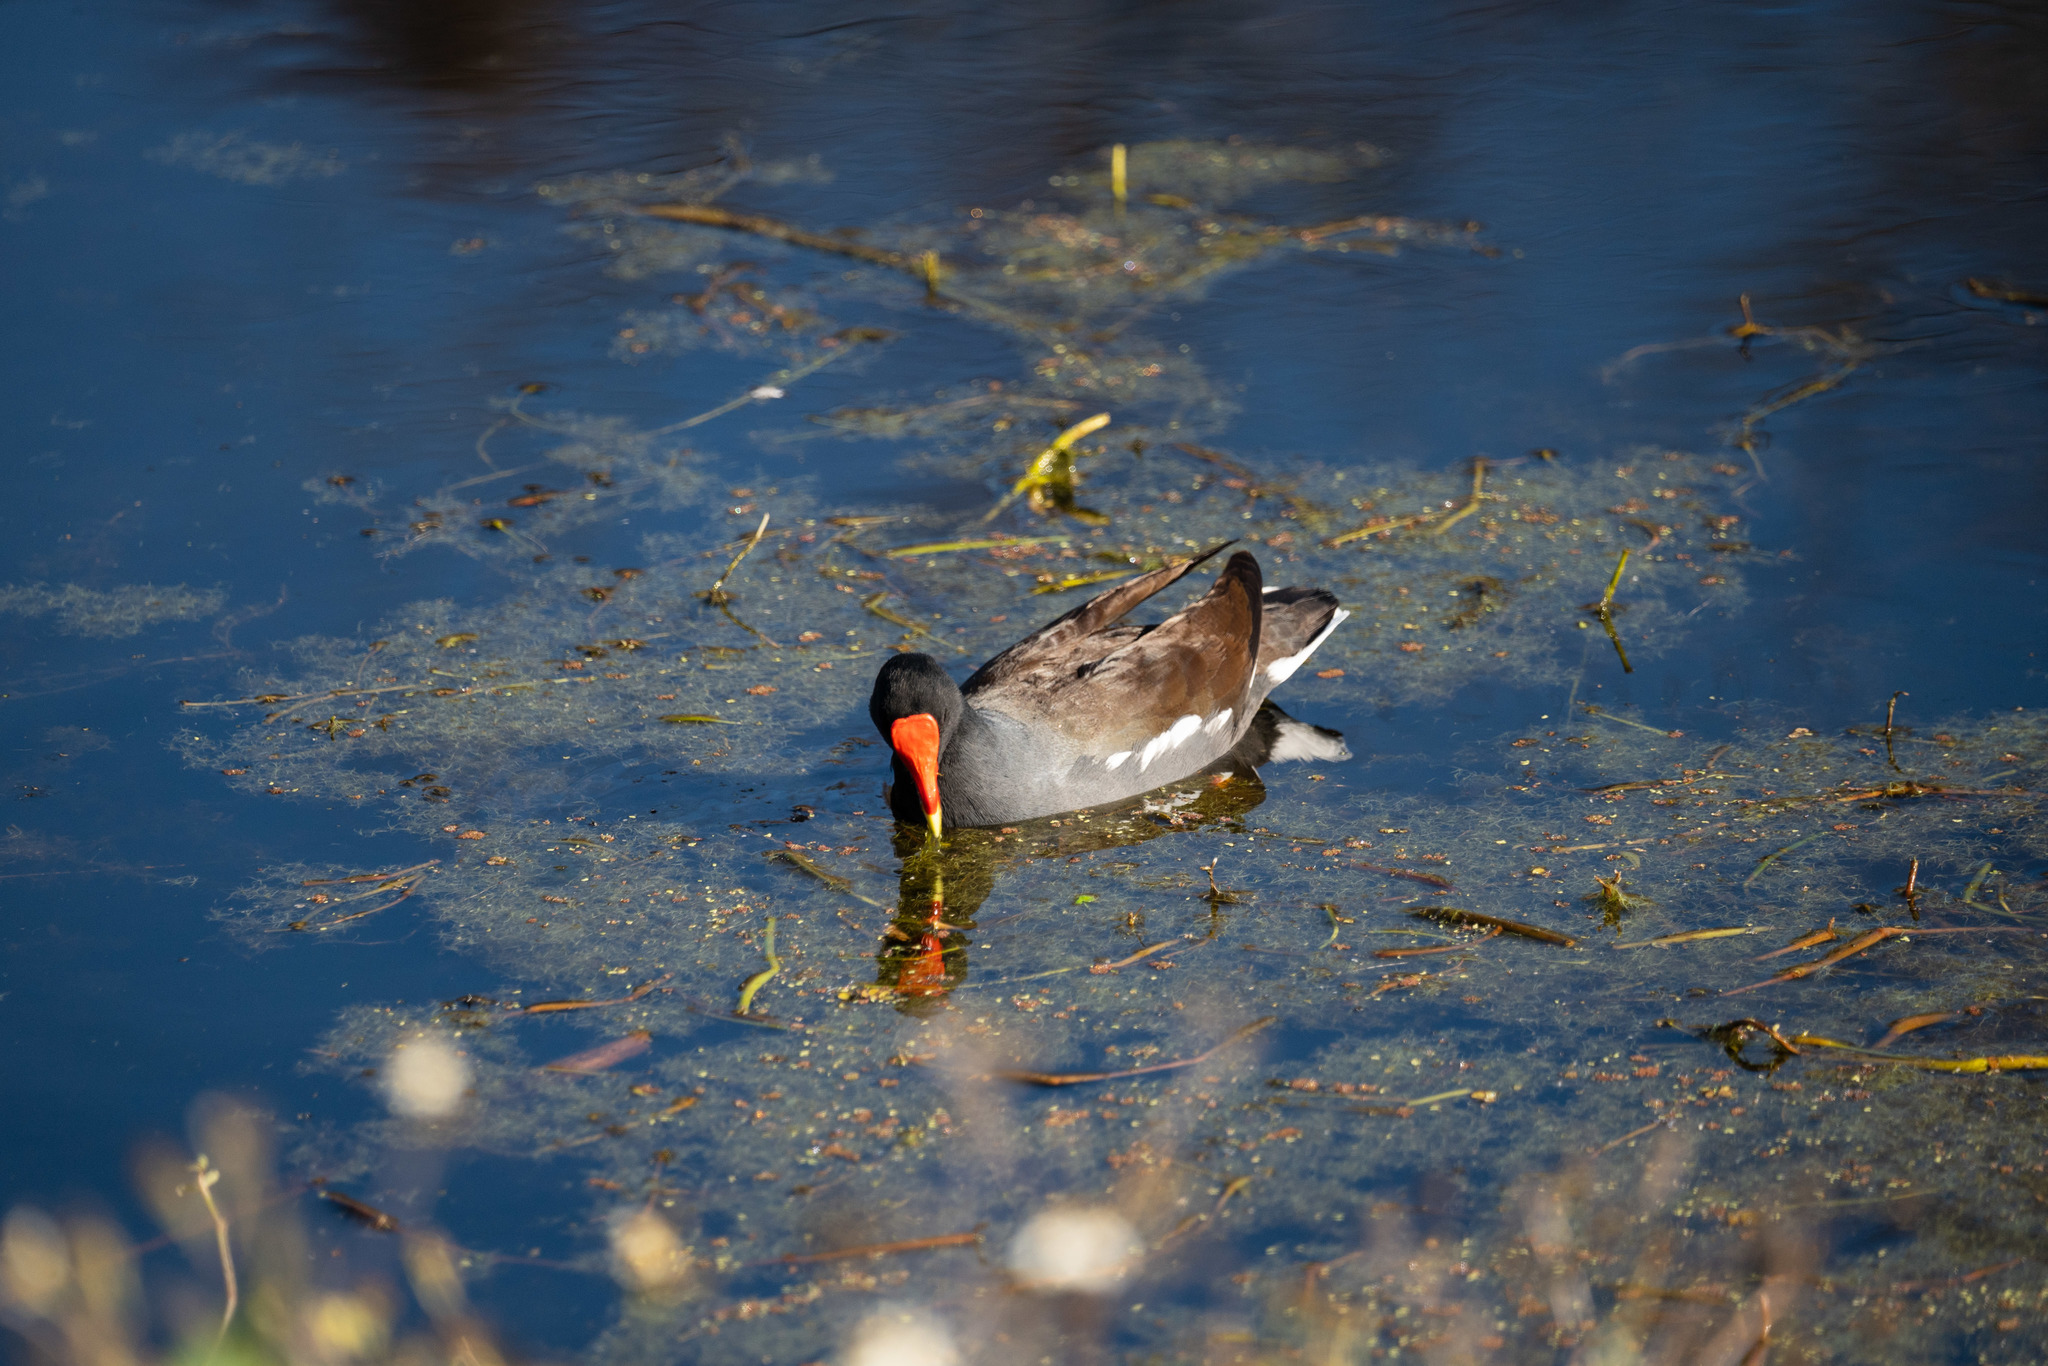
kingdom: Animalia
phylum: Chordata
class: Aves
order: Gruiformes
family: Rallidae
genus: Gallinula
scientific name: Gallinula chloropus
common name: Common moorhen
